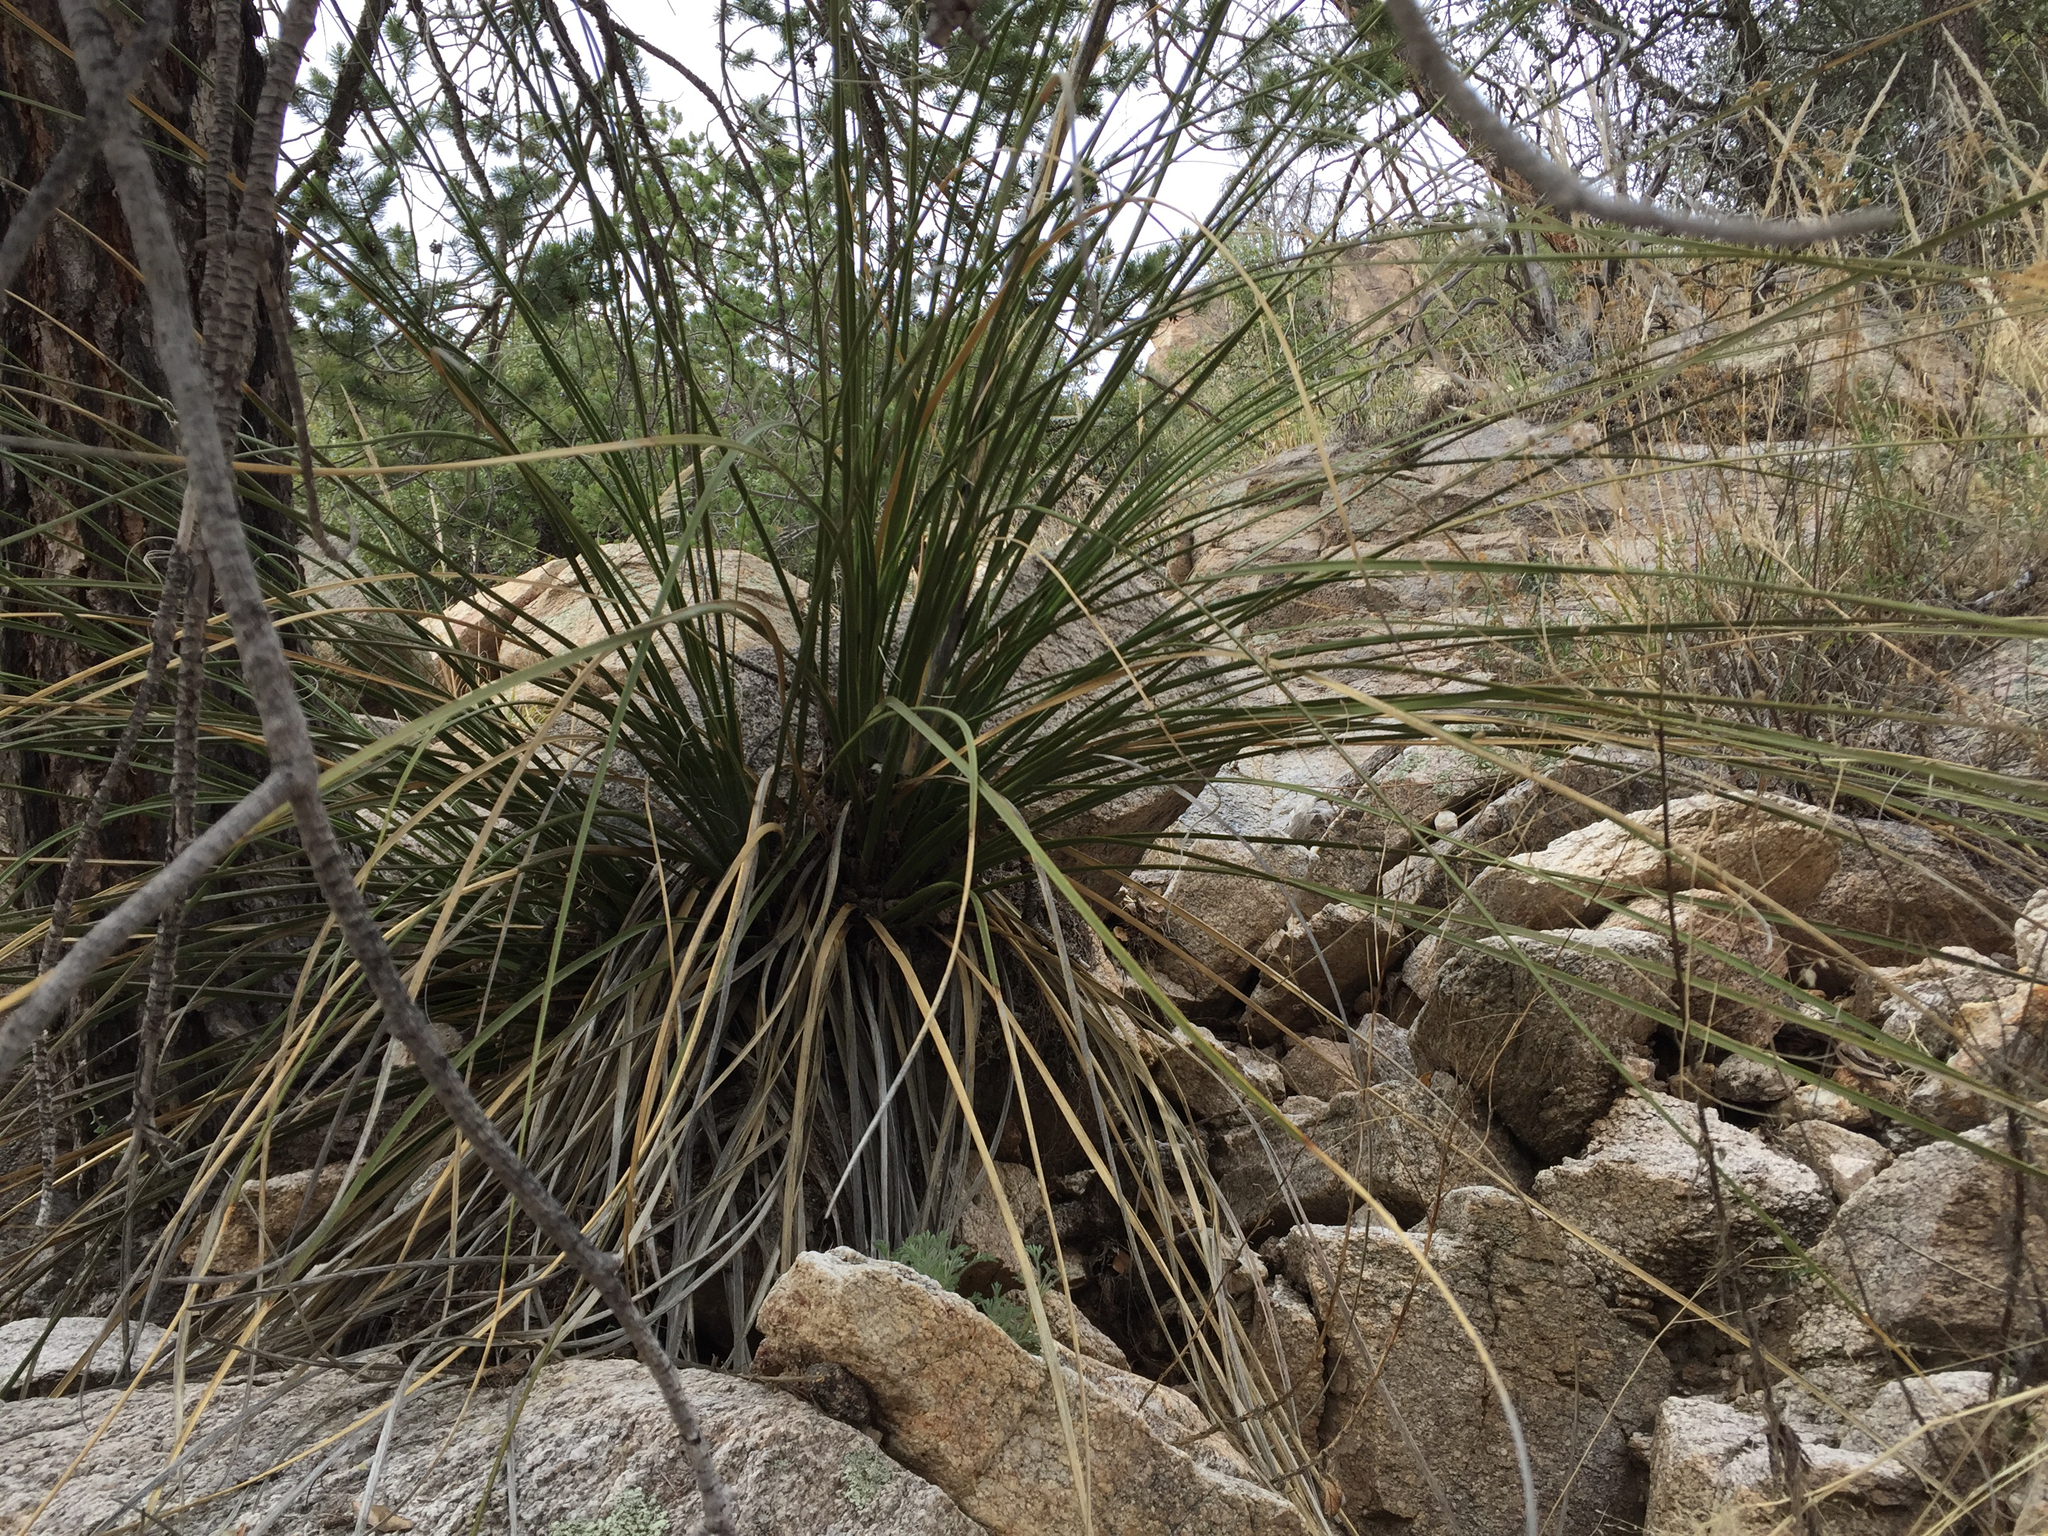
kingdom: Plantae
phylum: Tracheophyta
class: Liliopsida
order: Asparagales
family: Asparagaceae
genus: Nolina
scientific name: Nolina microcarpa
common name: Bear-grass
